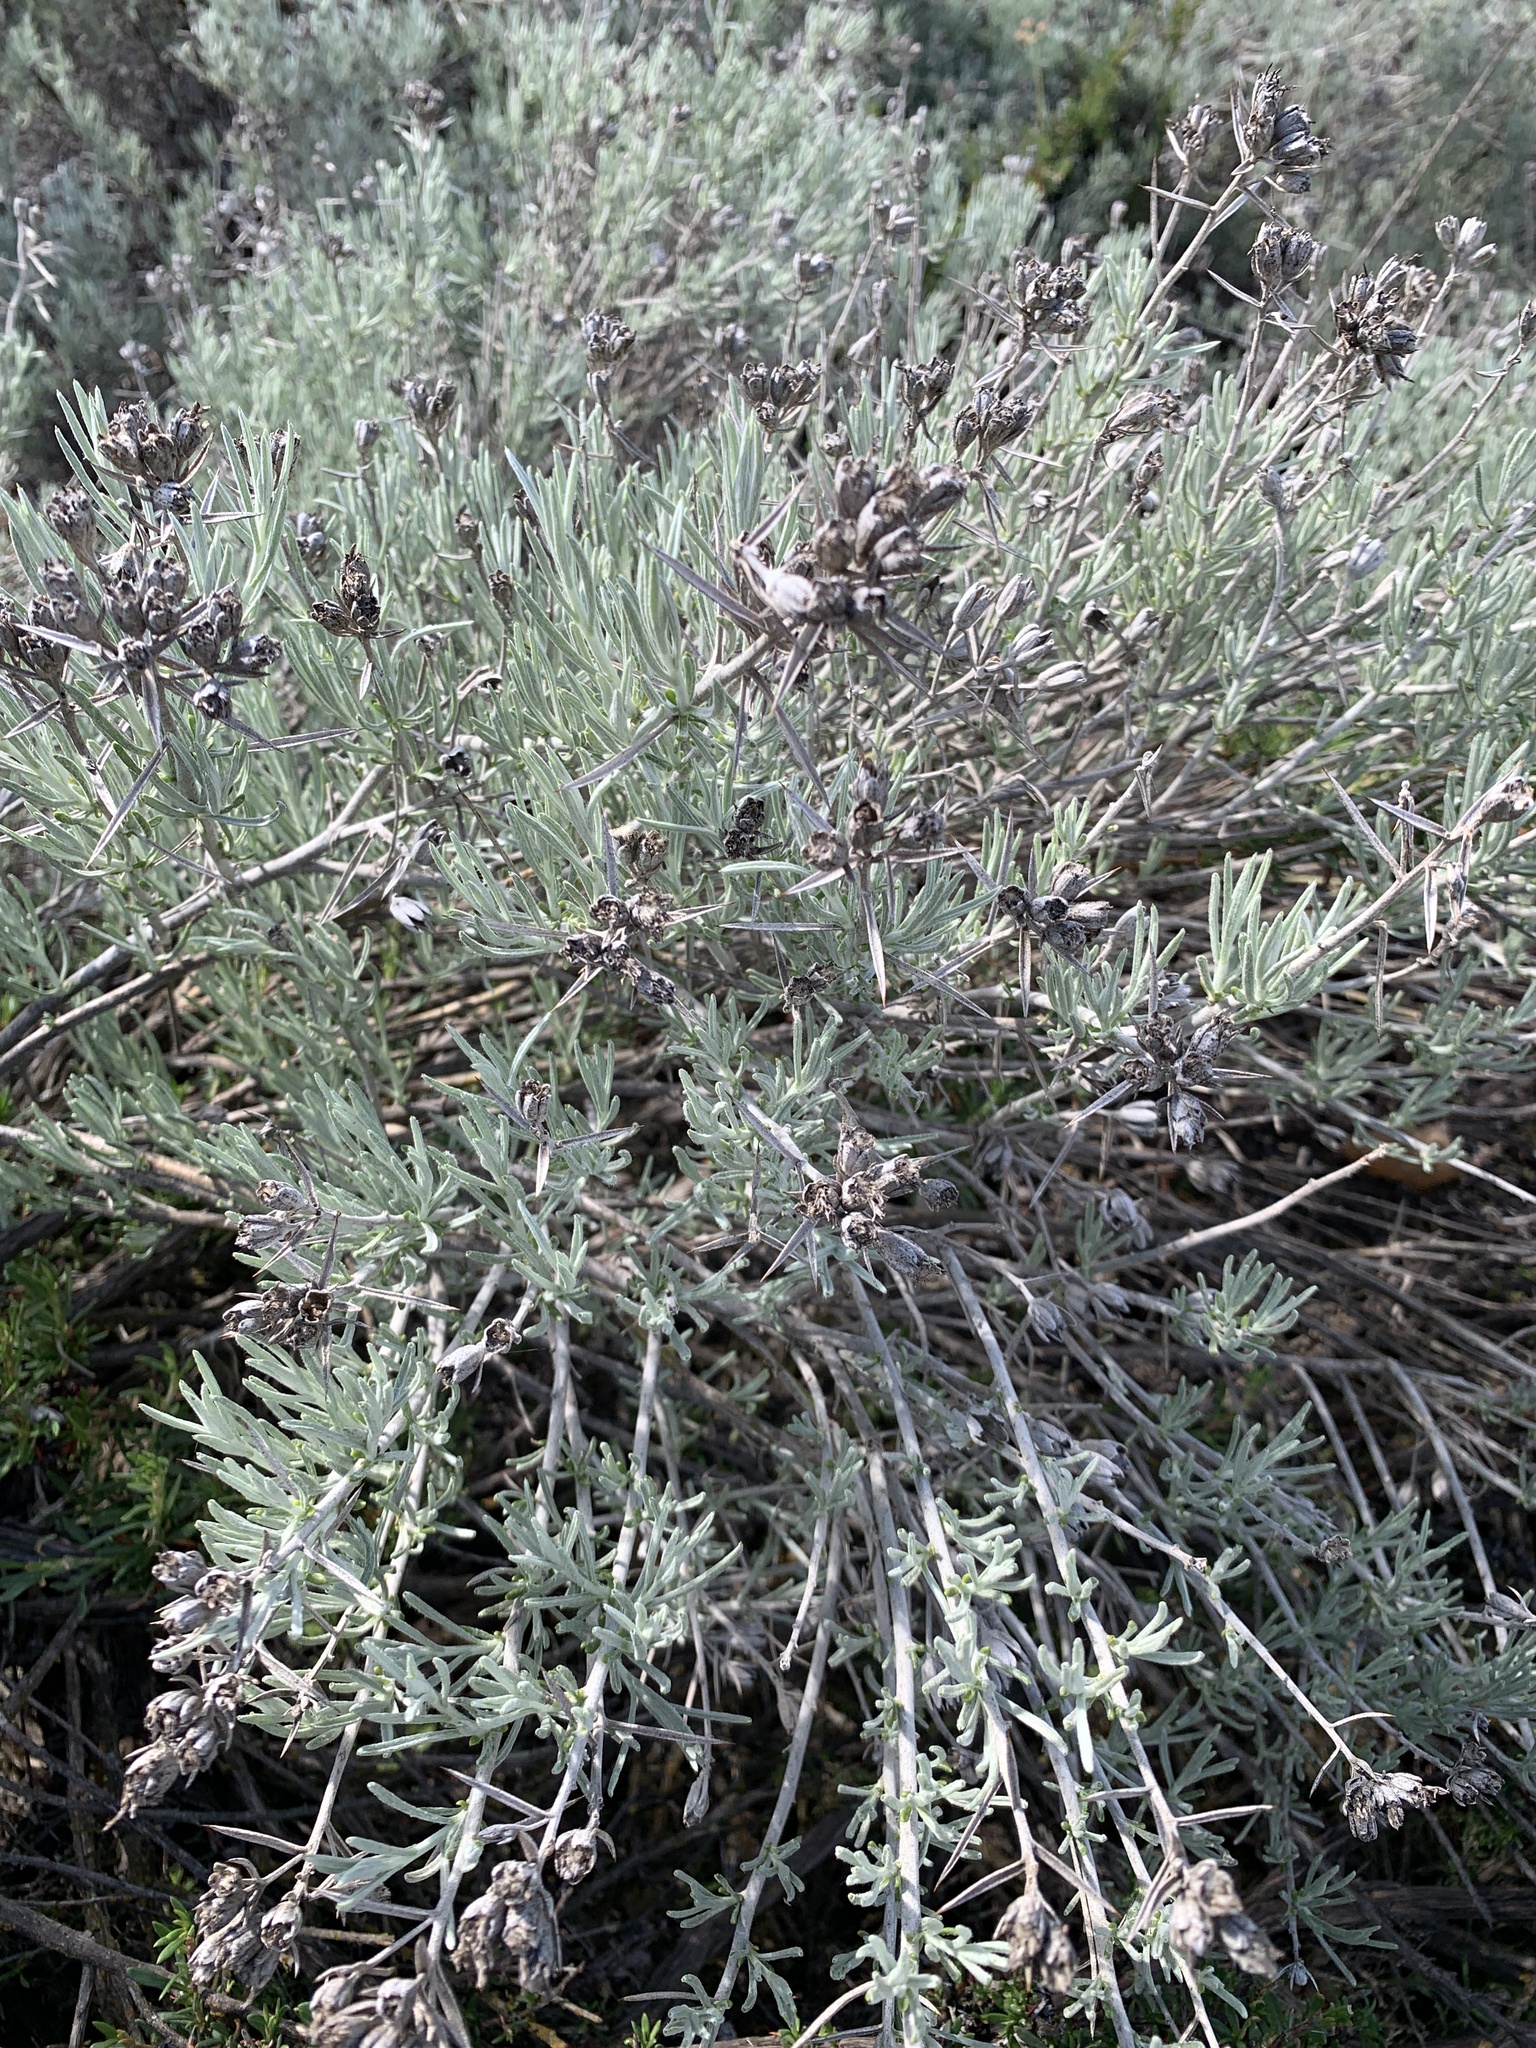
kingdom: Plantae
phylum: Tracheophyta
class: Magnoliopsida
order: Asterales
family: Asteraceae
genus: Tetradymia
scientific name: Tetradymia comosa
